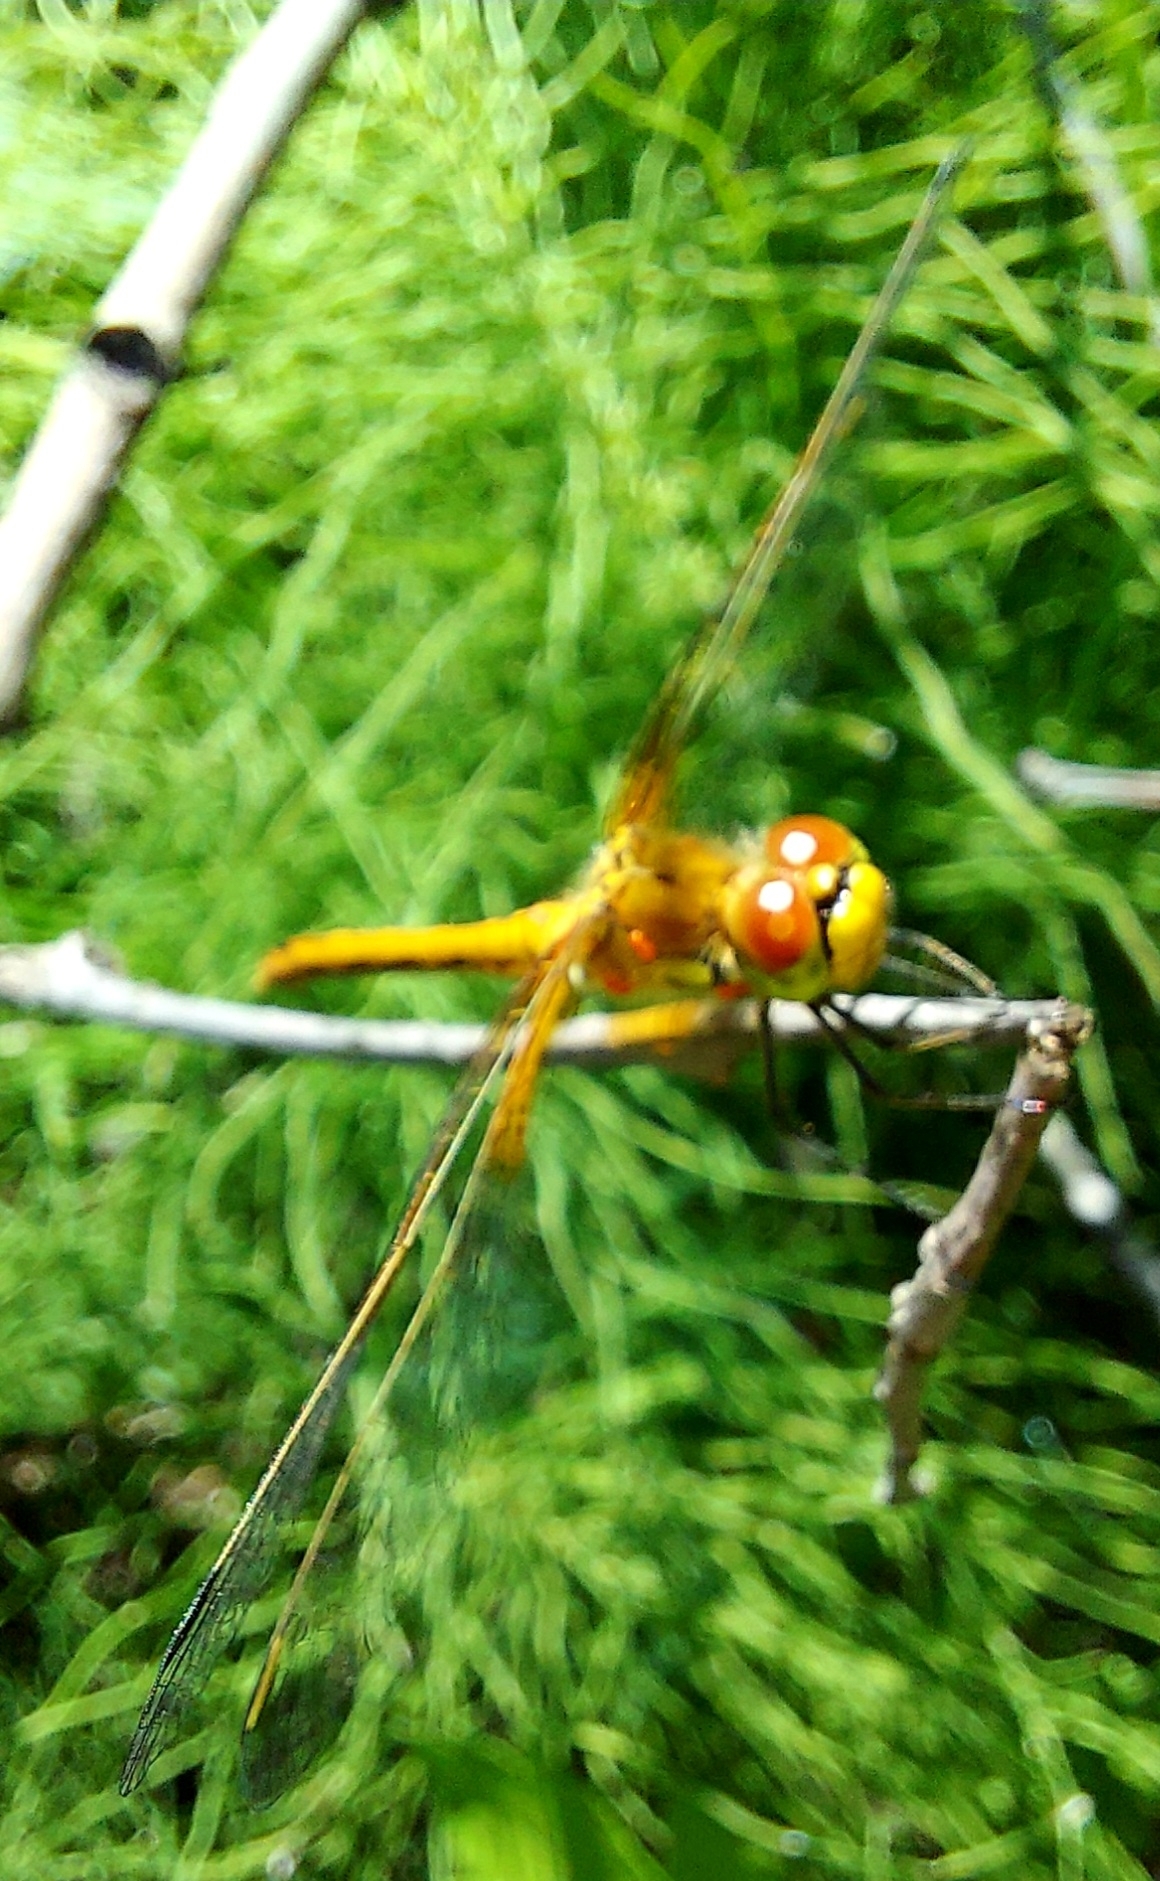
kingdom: Animalia
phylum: Arthropoda
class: Insecta
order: Odonata
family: Libellulidae
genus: Sympetrum
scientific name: Sympetrum flaveolum
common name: Yellow-winged darter
